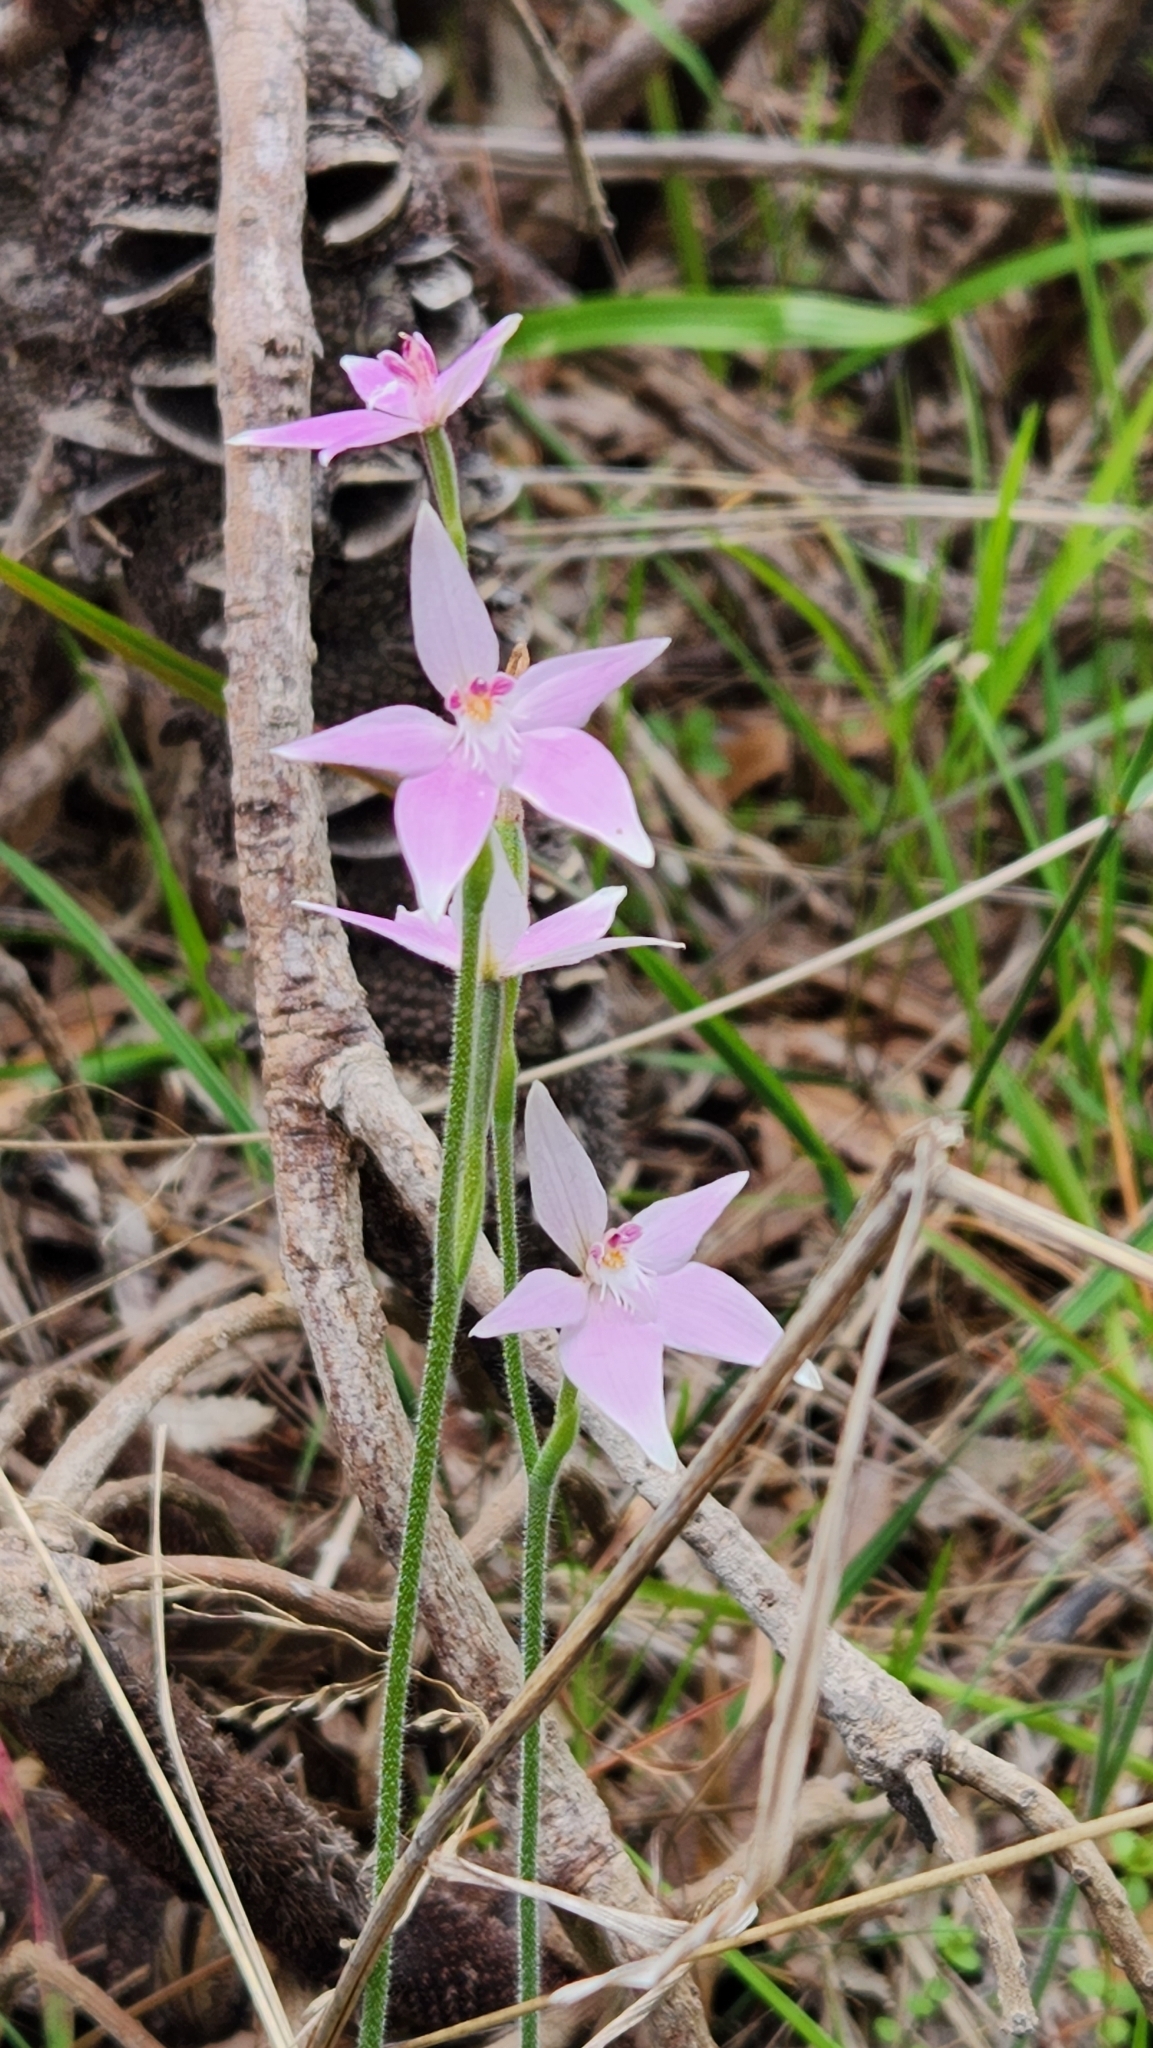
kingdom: Plantae
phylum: Tracheophyta
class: Liliopsida
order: Asparagales
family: Orchidaceae
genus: Caladenia
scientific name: Caladenia latifolia
